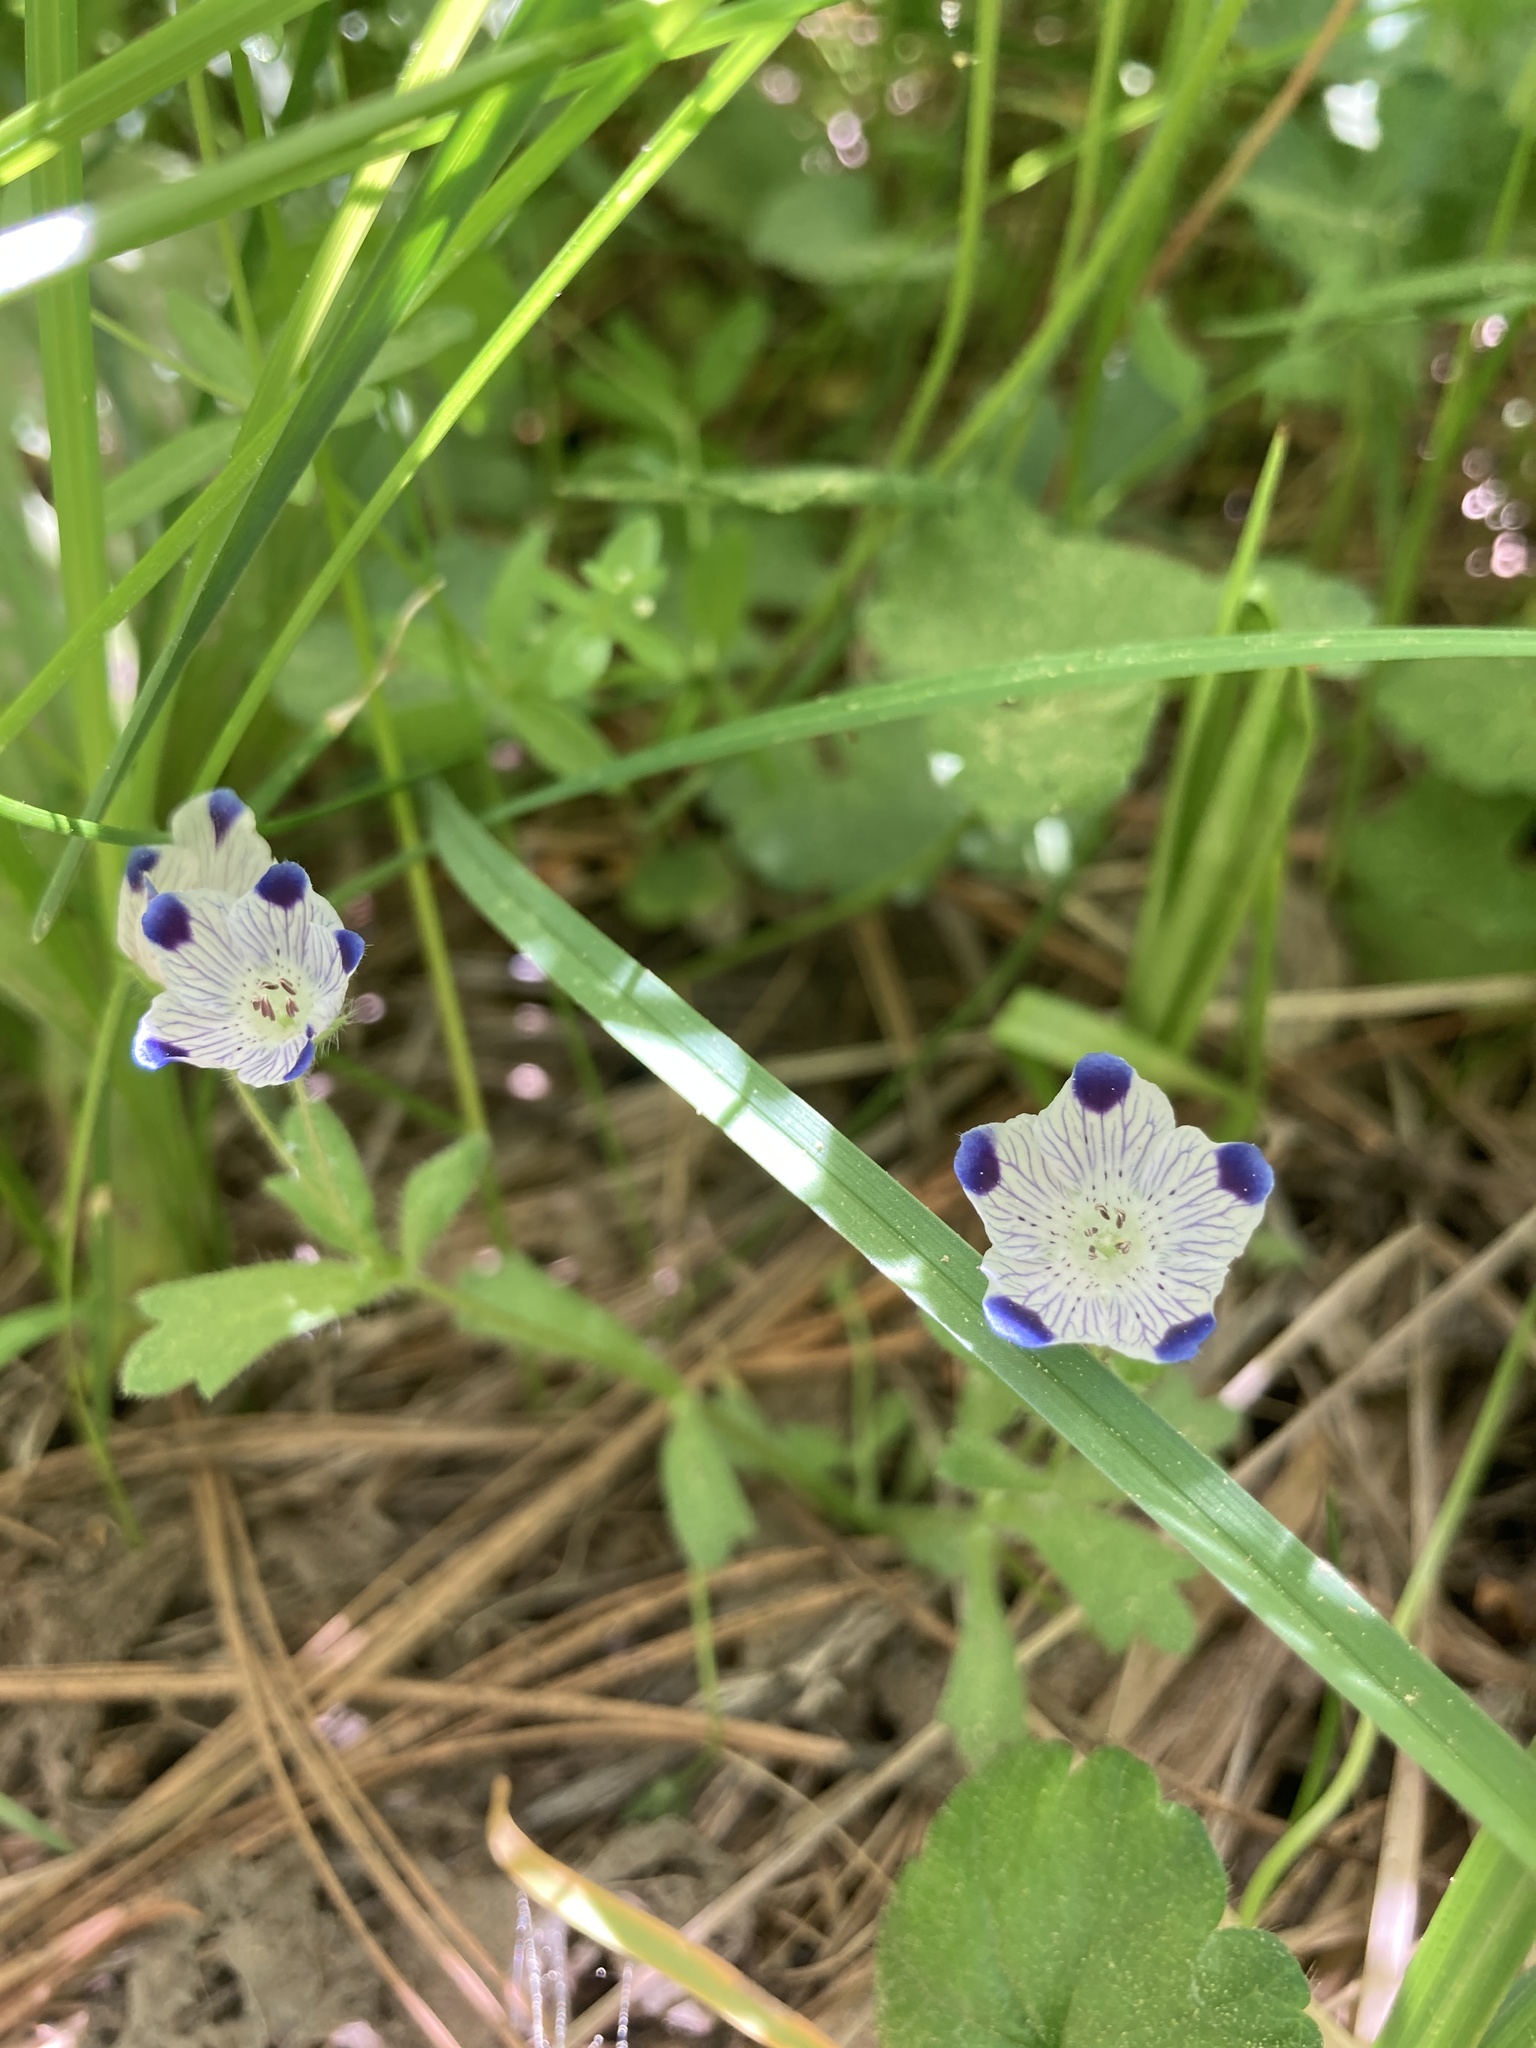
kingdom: Plantae
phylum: Tracheophyta
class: Magnoliopsida
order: Boraginales
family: Hydrophyllaceae
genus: Nemophila
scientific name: Nemophila maculata
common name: Fivespot
